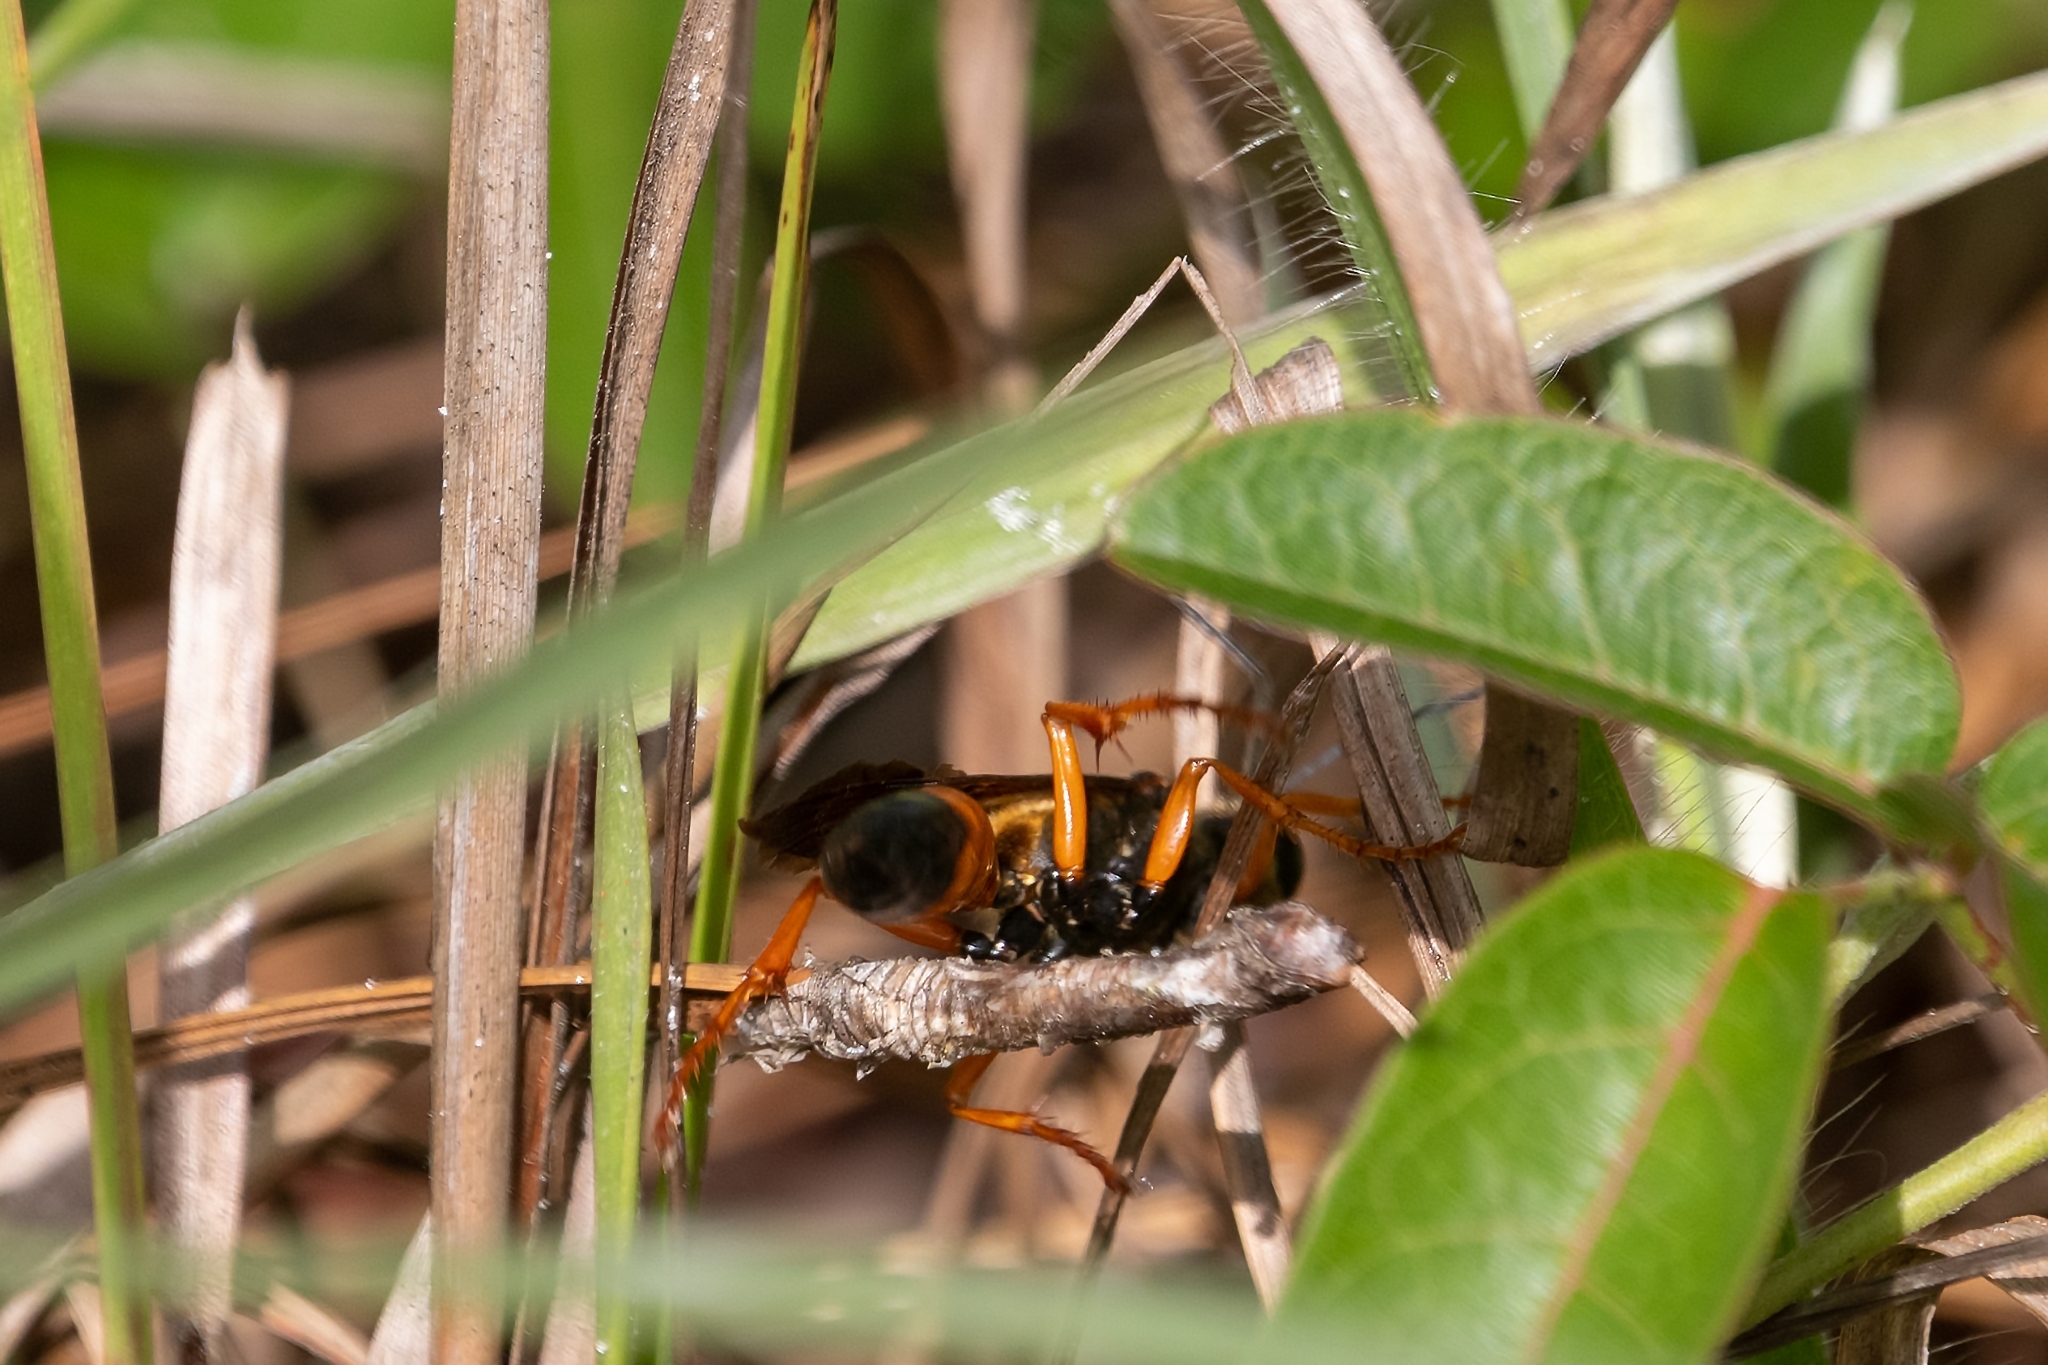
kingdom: Animalia
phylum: Arthropoda
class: Insecta
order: Hymenoptera
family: Sphecidae
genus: Sphex
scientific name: Sphex ichneumoneus
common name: Great golden digger wasp
